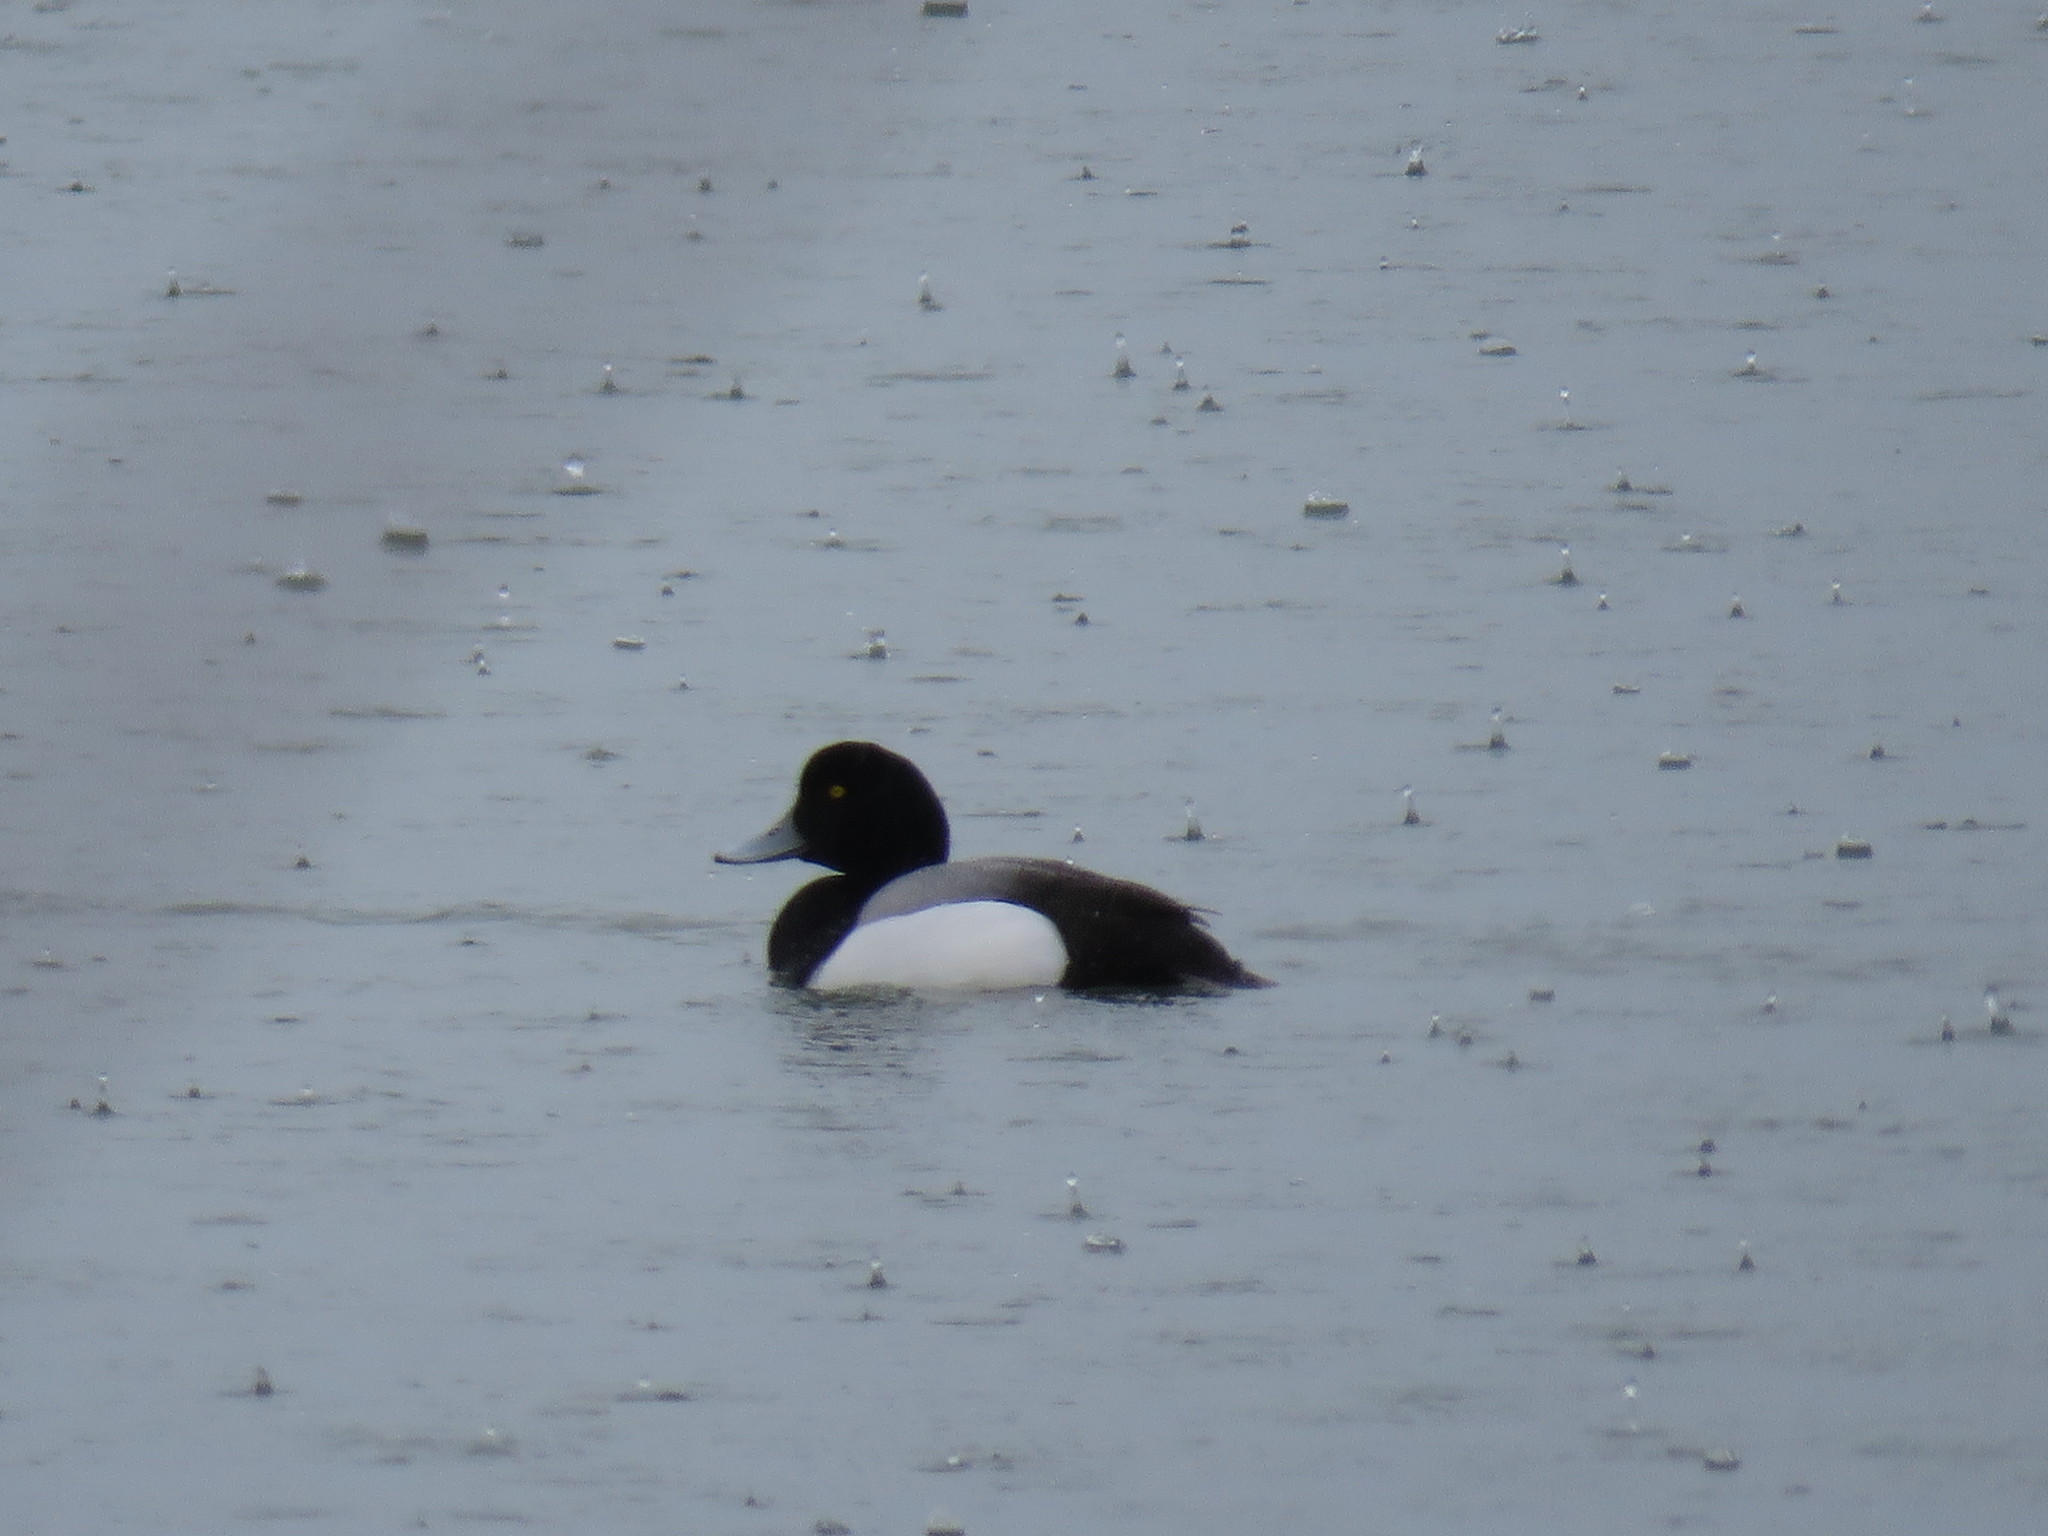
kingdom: Animalia
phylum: Chordata
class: Aves
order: Anseriformes
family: Anatidae
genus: Aythya
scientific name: Aythya marila
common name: Greater scaup
